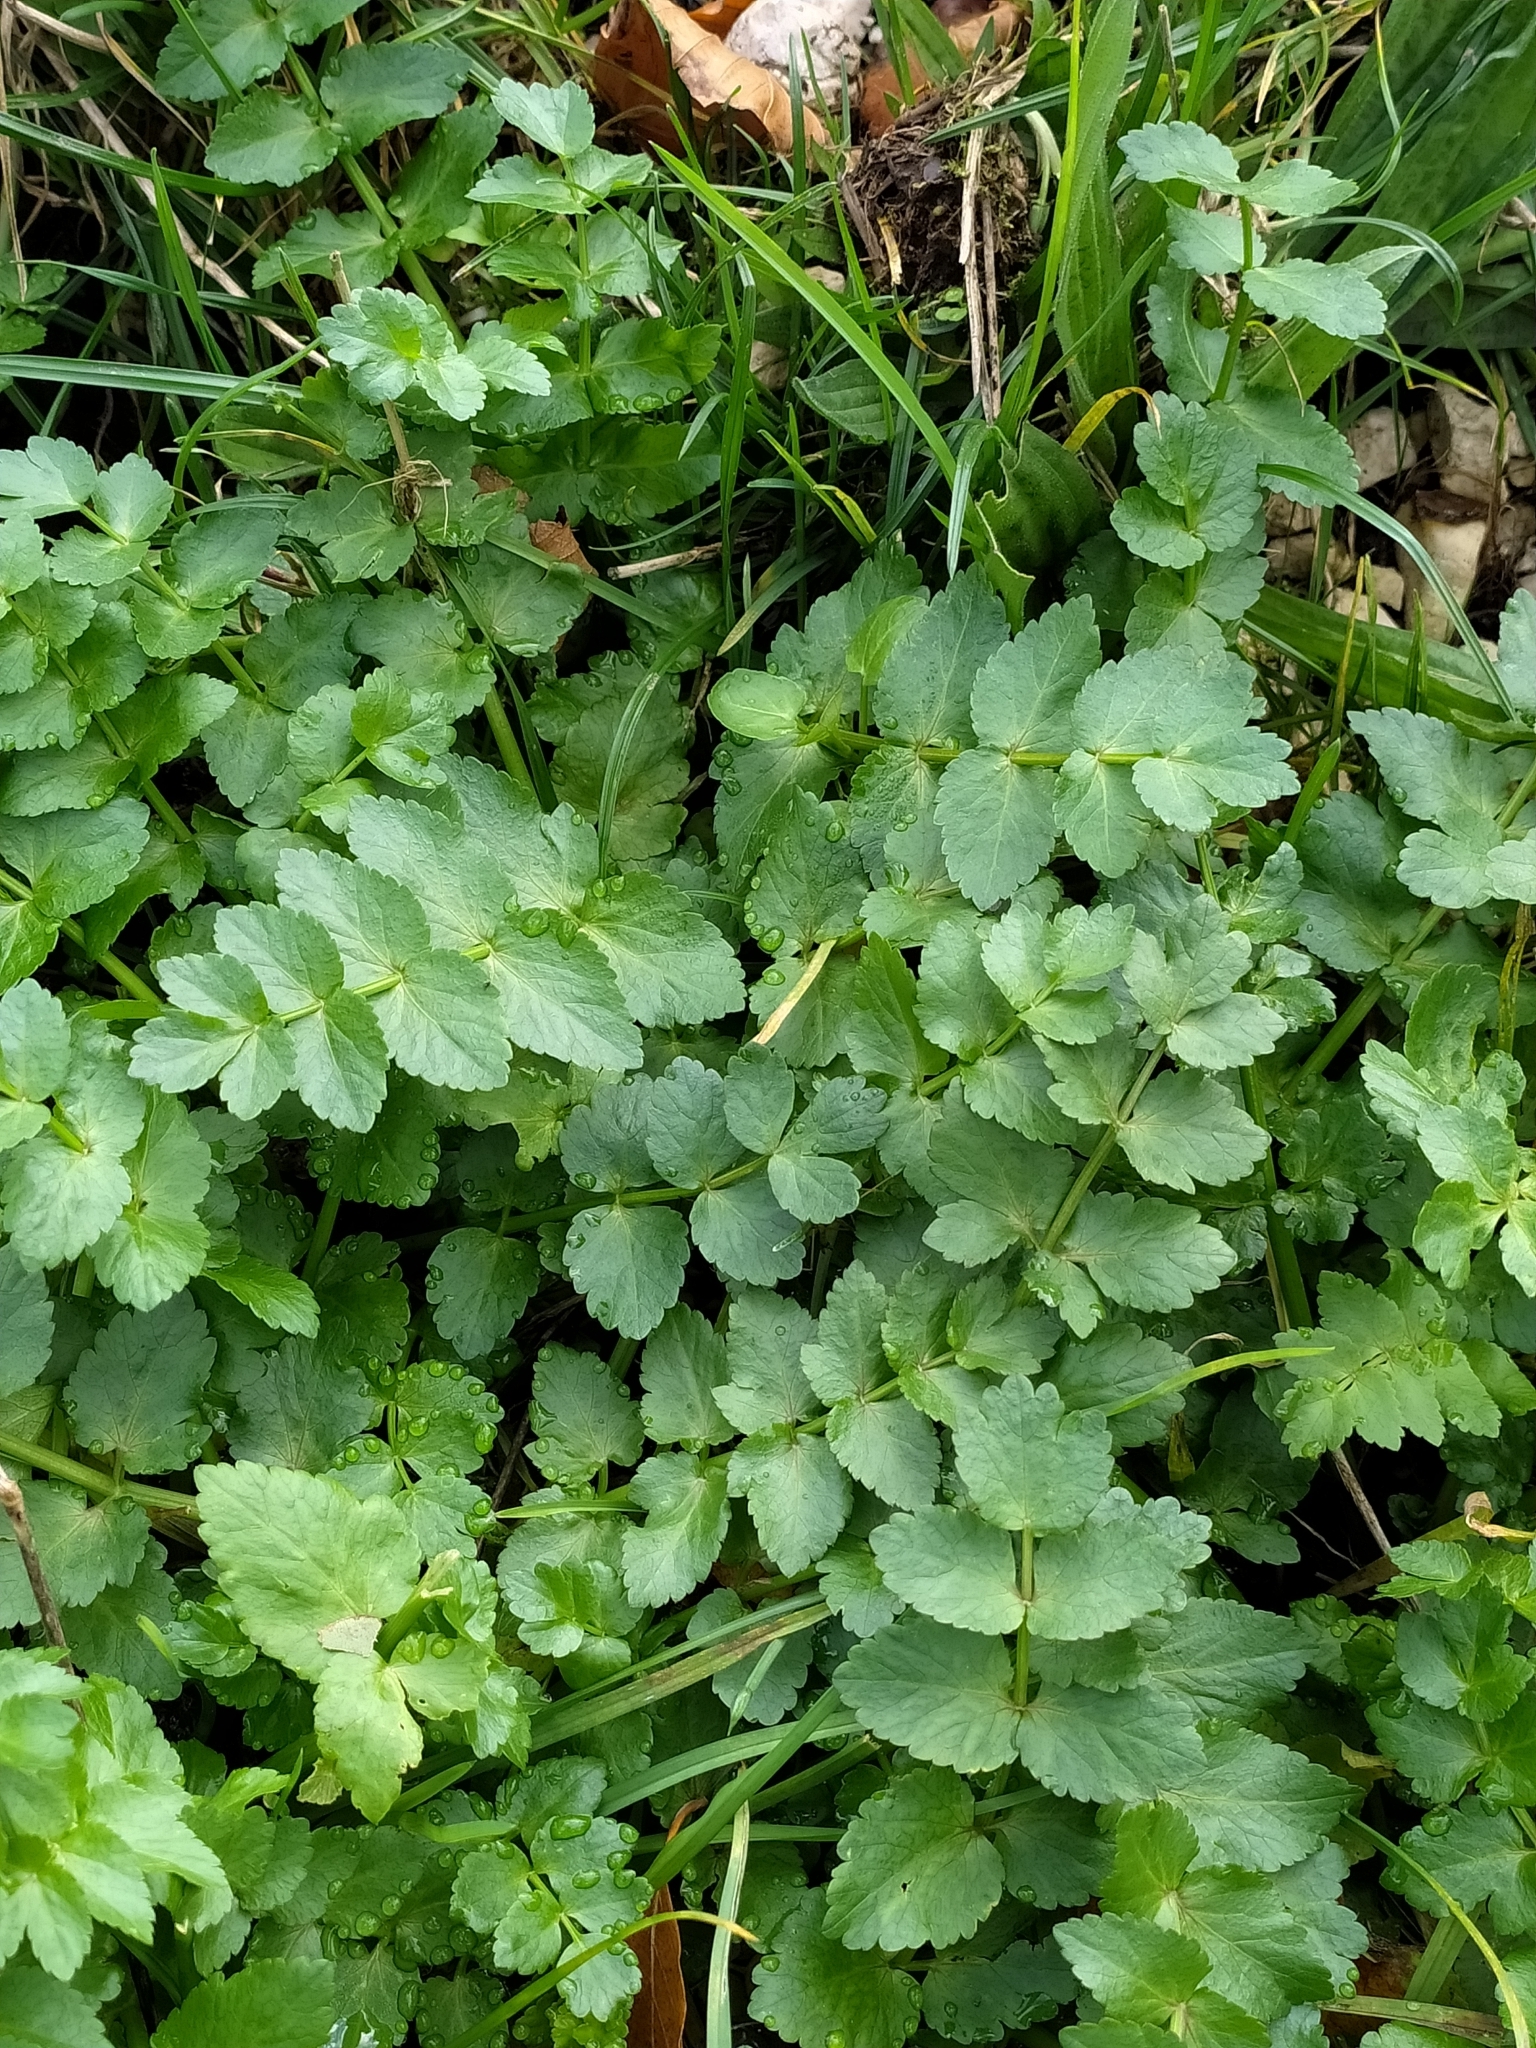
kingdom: Plantae
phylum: Tracheophyta
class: Magnoliopsida
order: Apiales
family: Apiaceae
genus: Helosciadium
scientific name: Helosciadium nodiflorum
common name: Fool's-watercress
